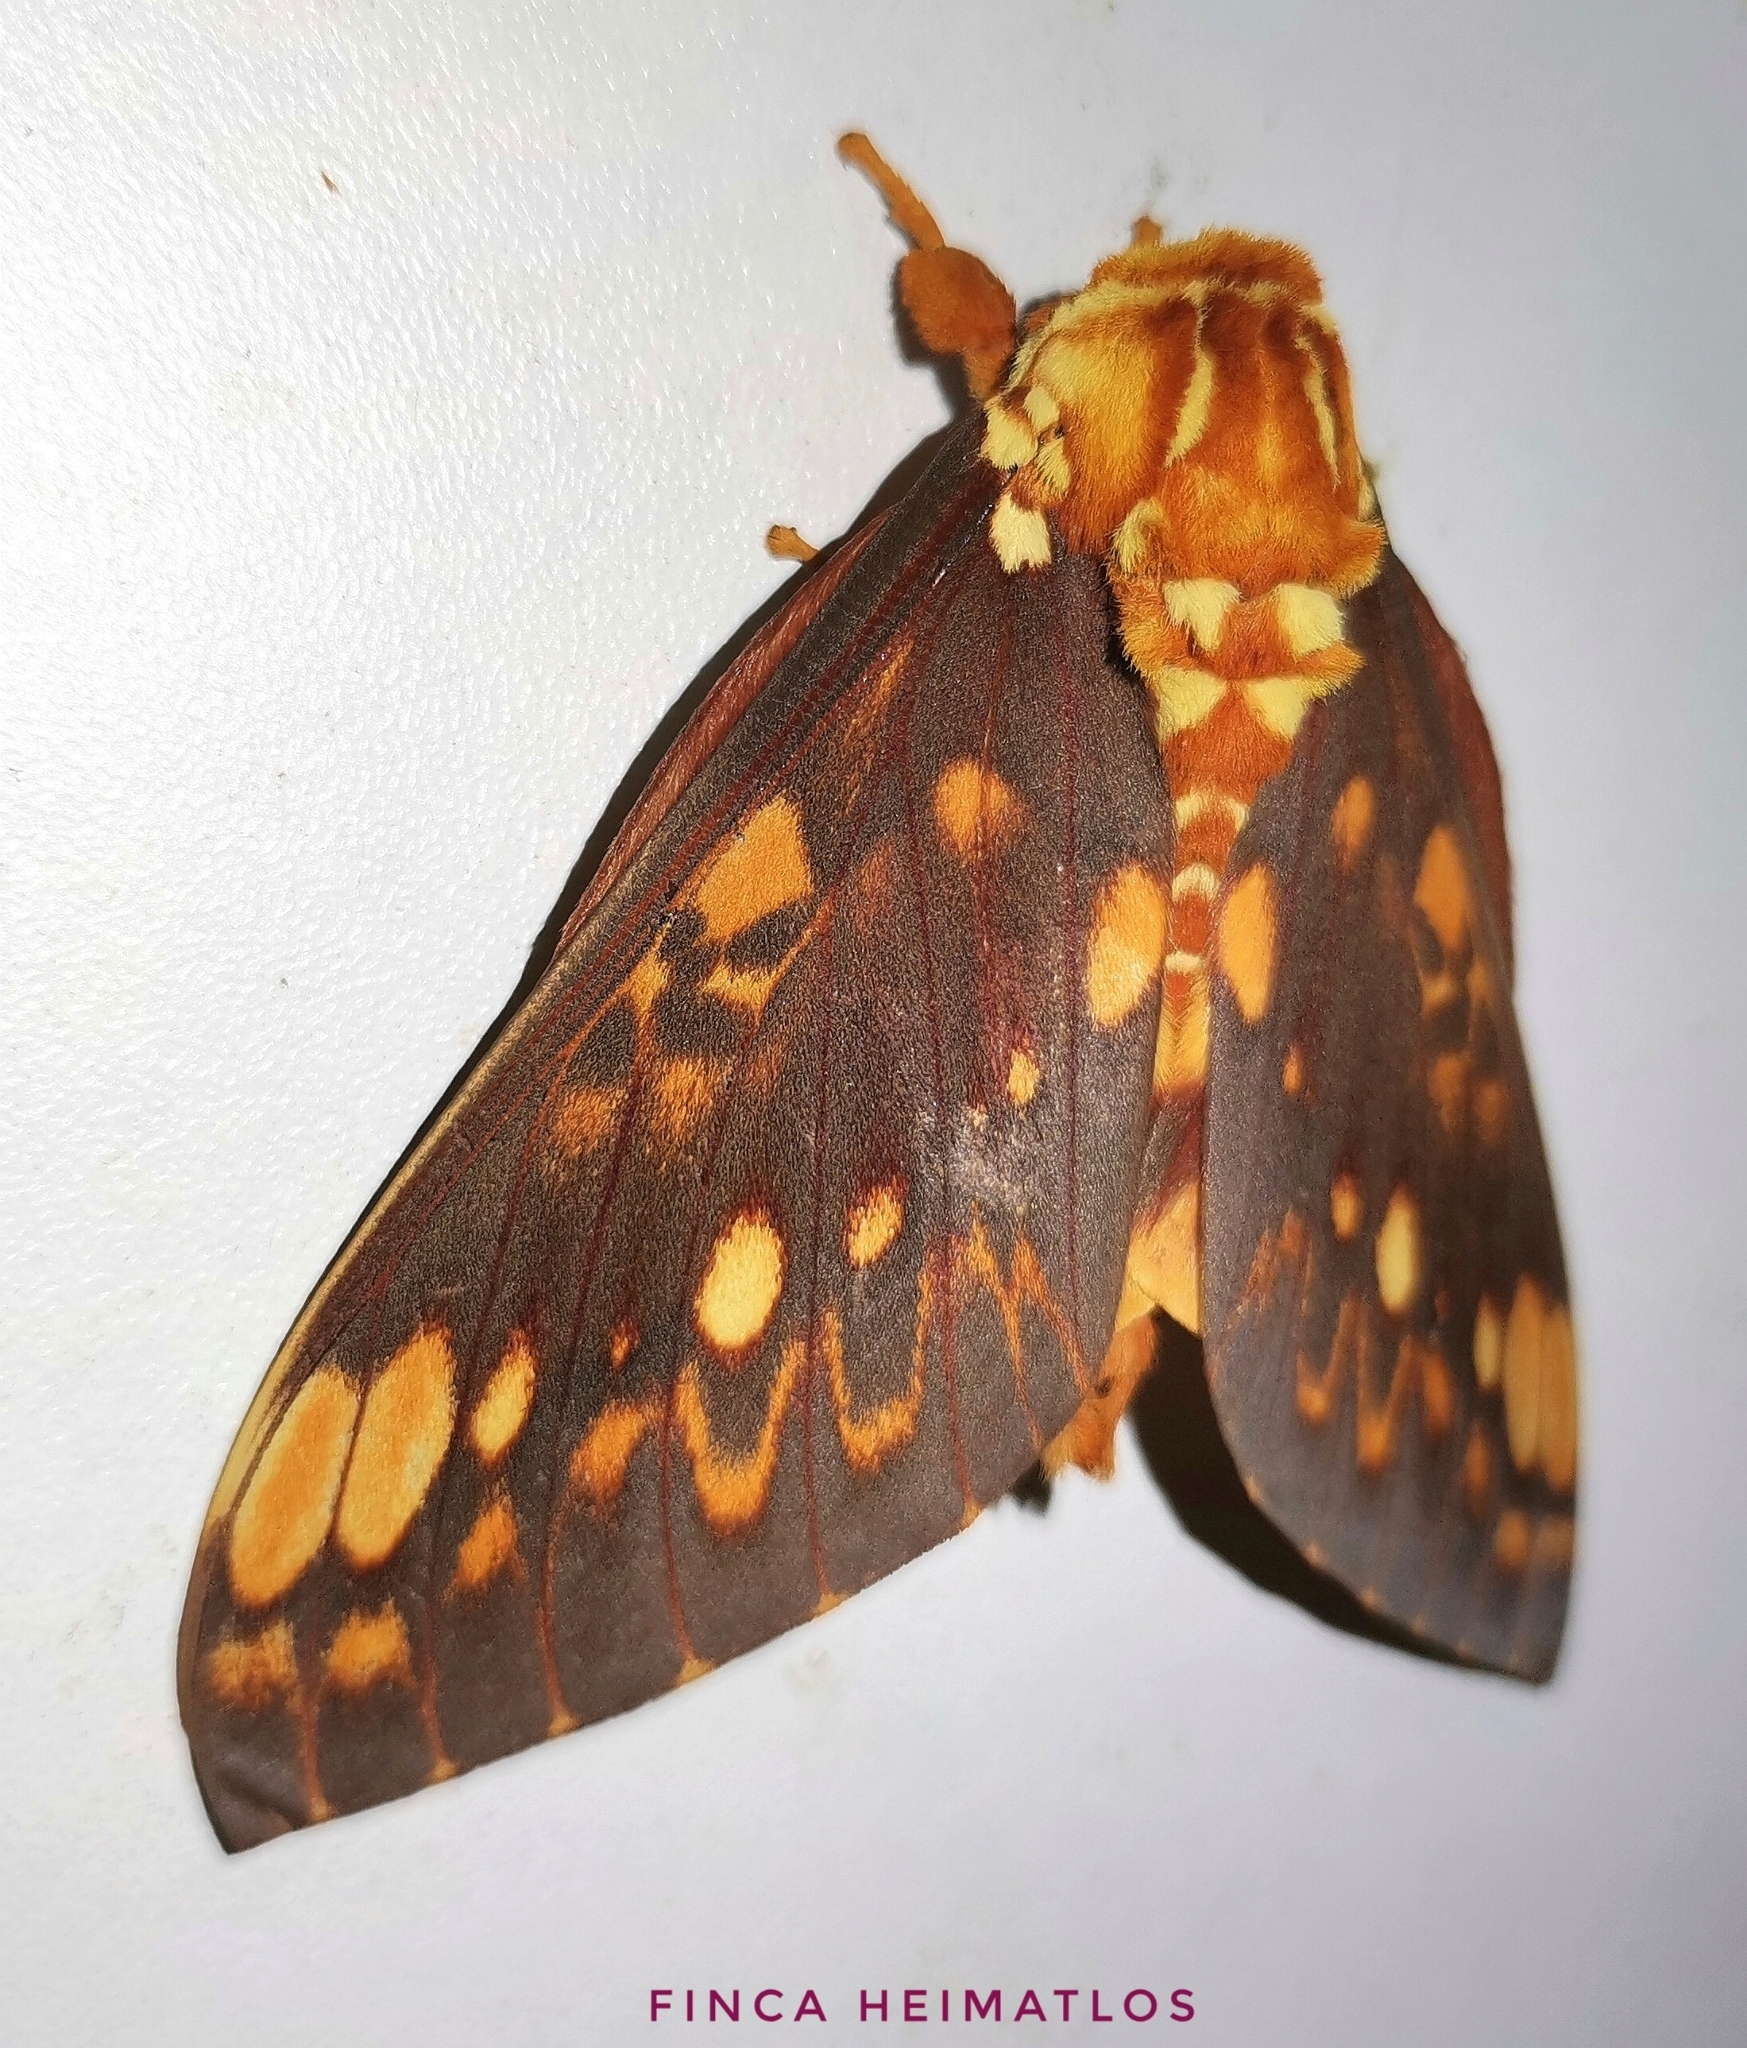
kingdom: Animalia
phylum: Arthropoda
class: Insecta
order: Lepidoptera
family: Saturniidae
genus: Citheronia
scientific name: Citheronia andina
